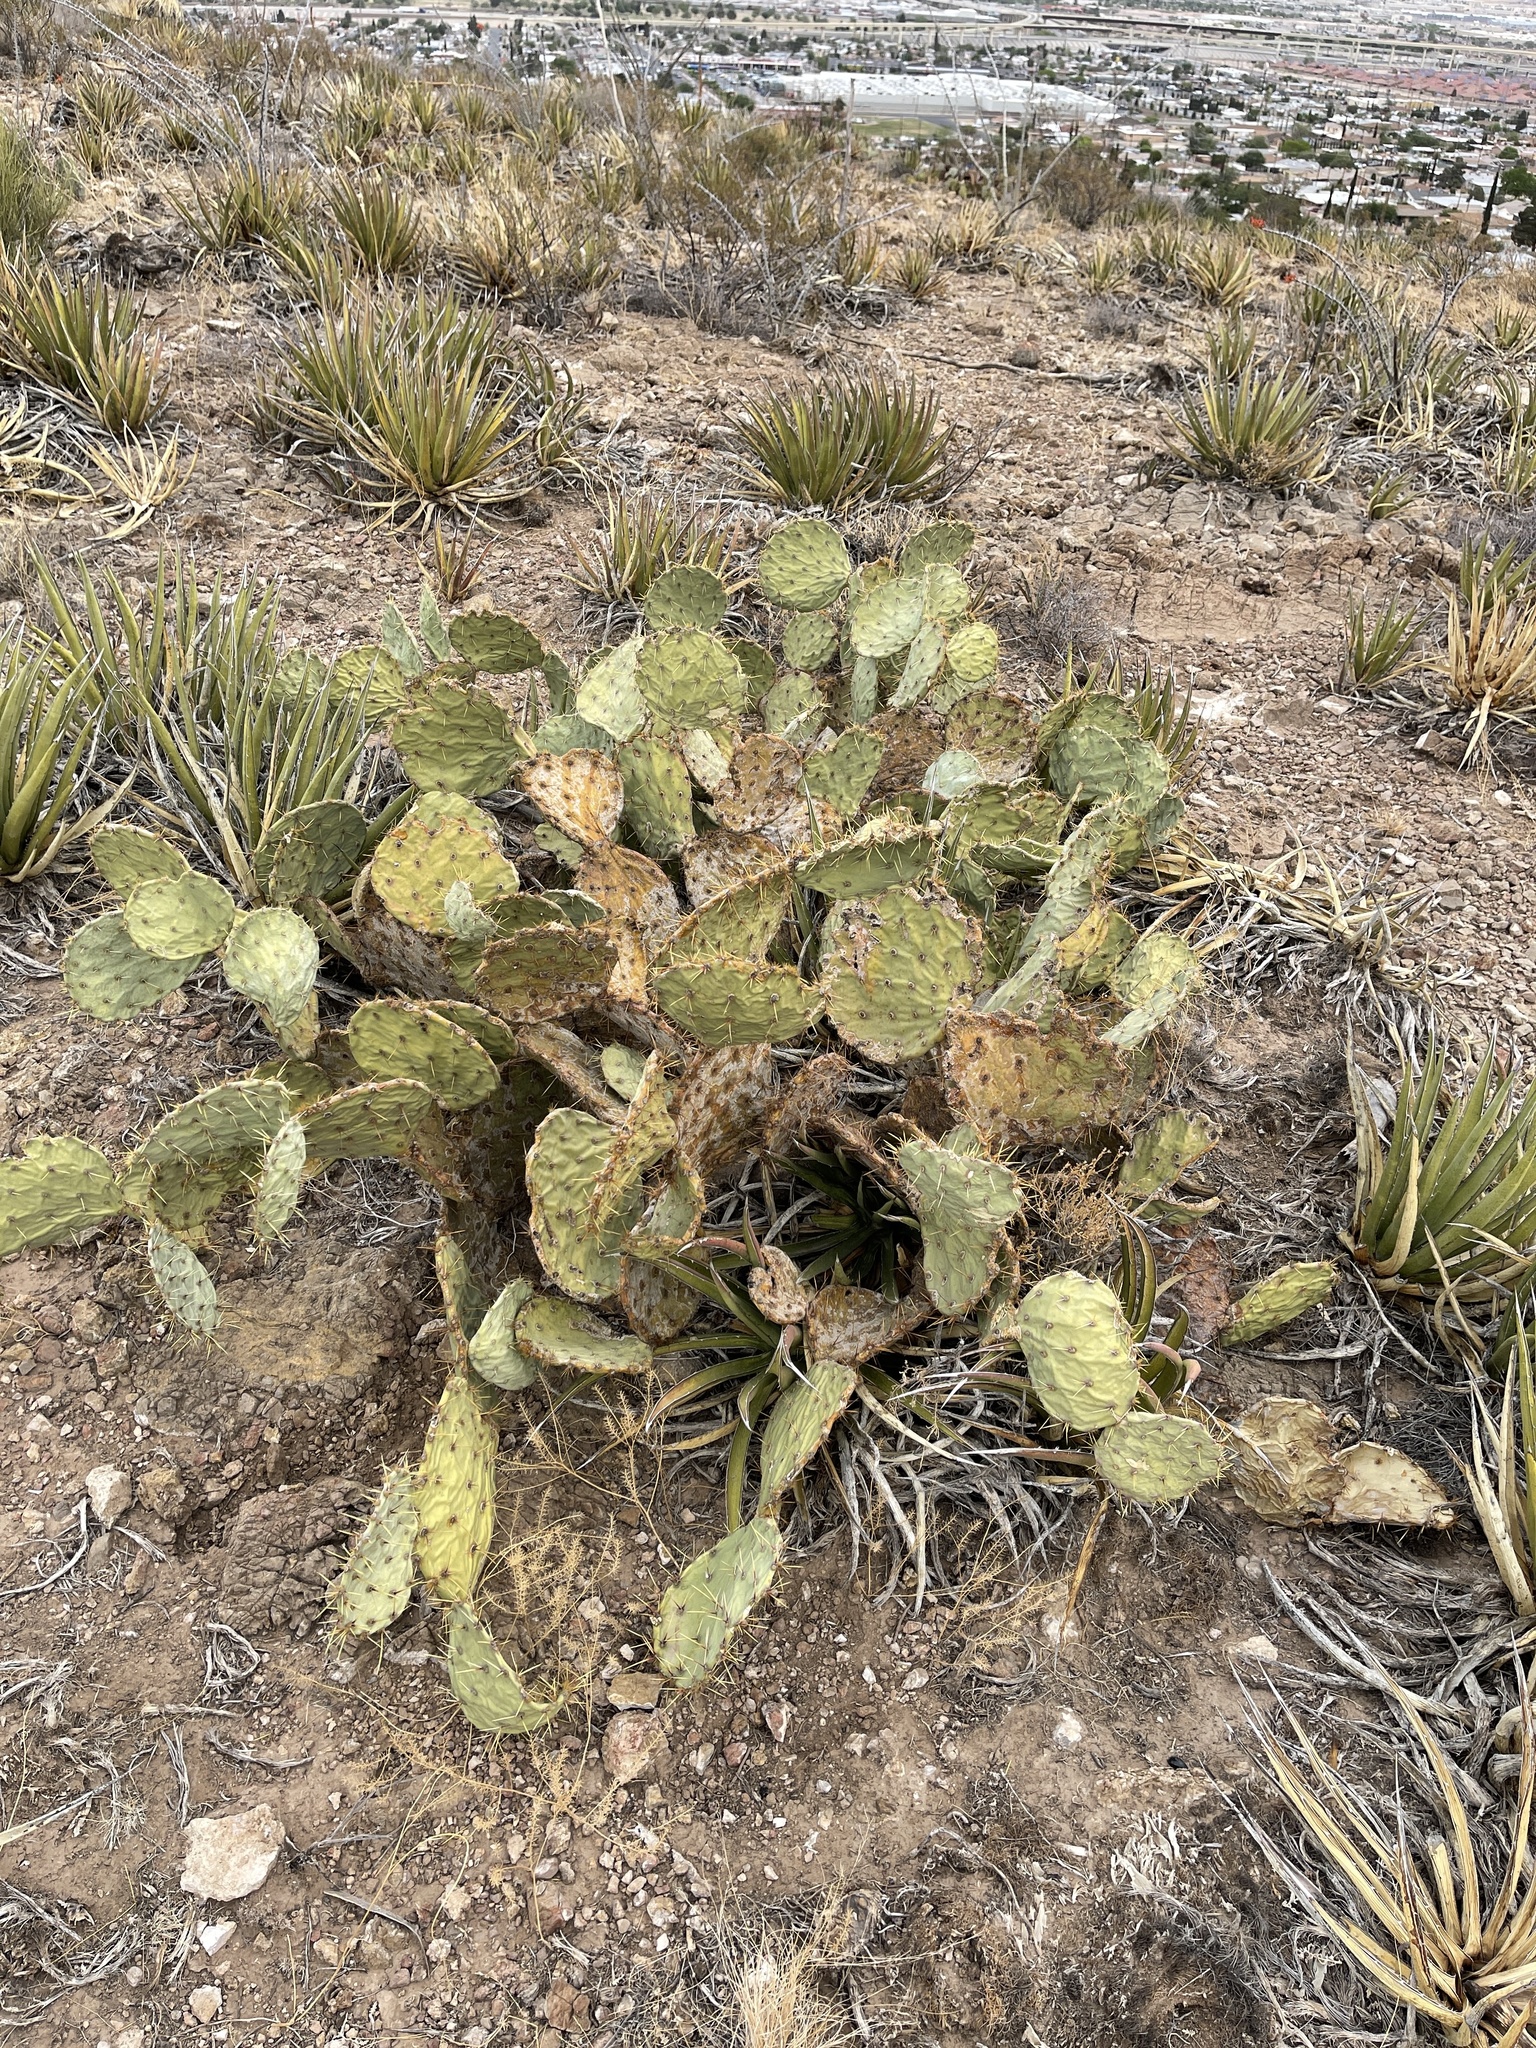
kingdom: Plantae
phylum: Tracheophyta
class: Magnoliopsida
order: Caryophyllales
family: Cactaceae
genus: Opuntia
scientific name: Opuntia engelmannii
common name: Cactus-apple
